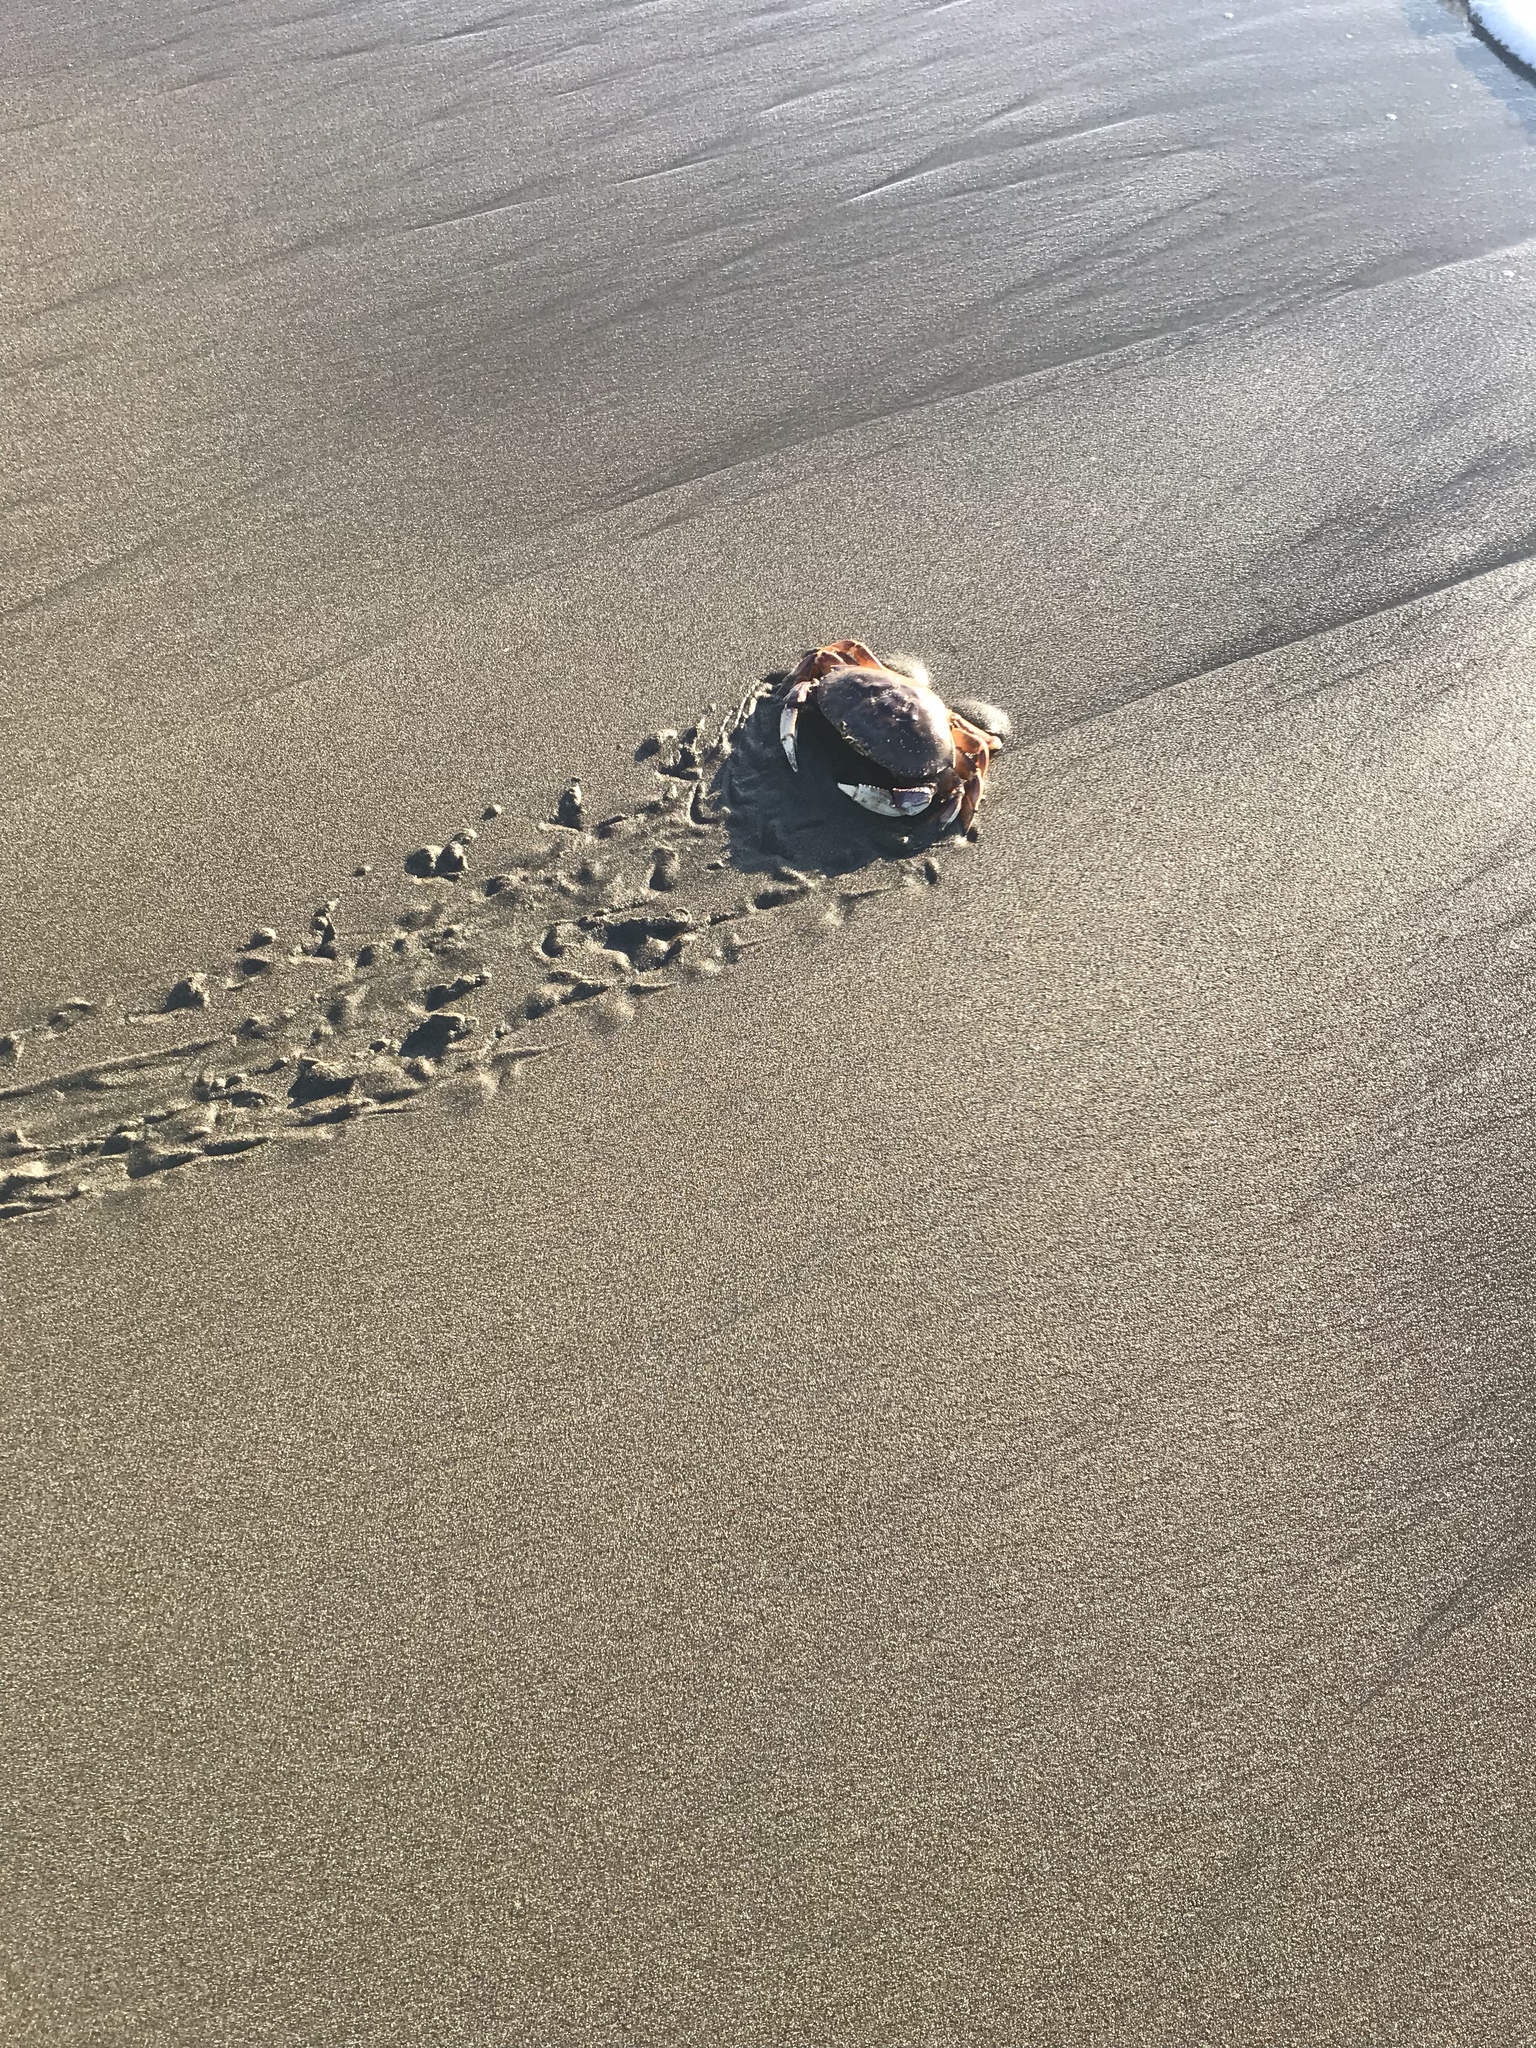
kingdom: Animalia
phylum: Arthropoda
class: Malacostraca
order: Decapoda
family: Cancridae
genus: Metacarcinus
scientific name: Metacarcinus magister
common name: Californian crab
